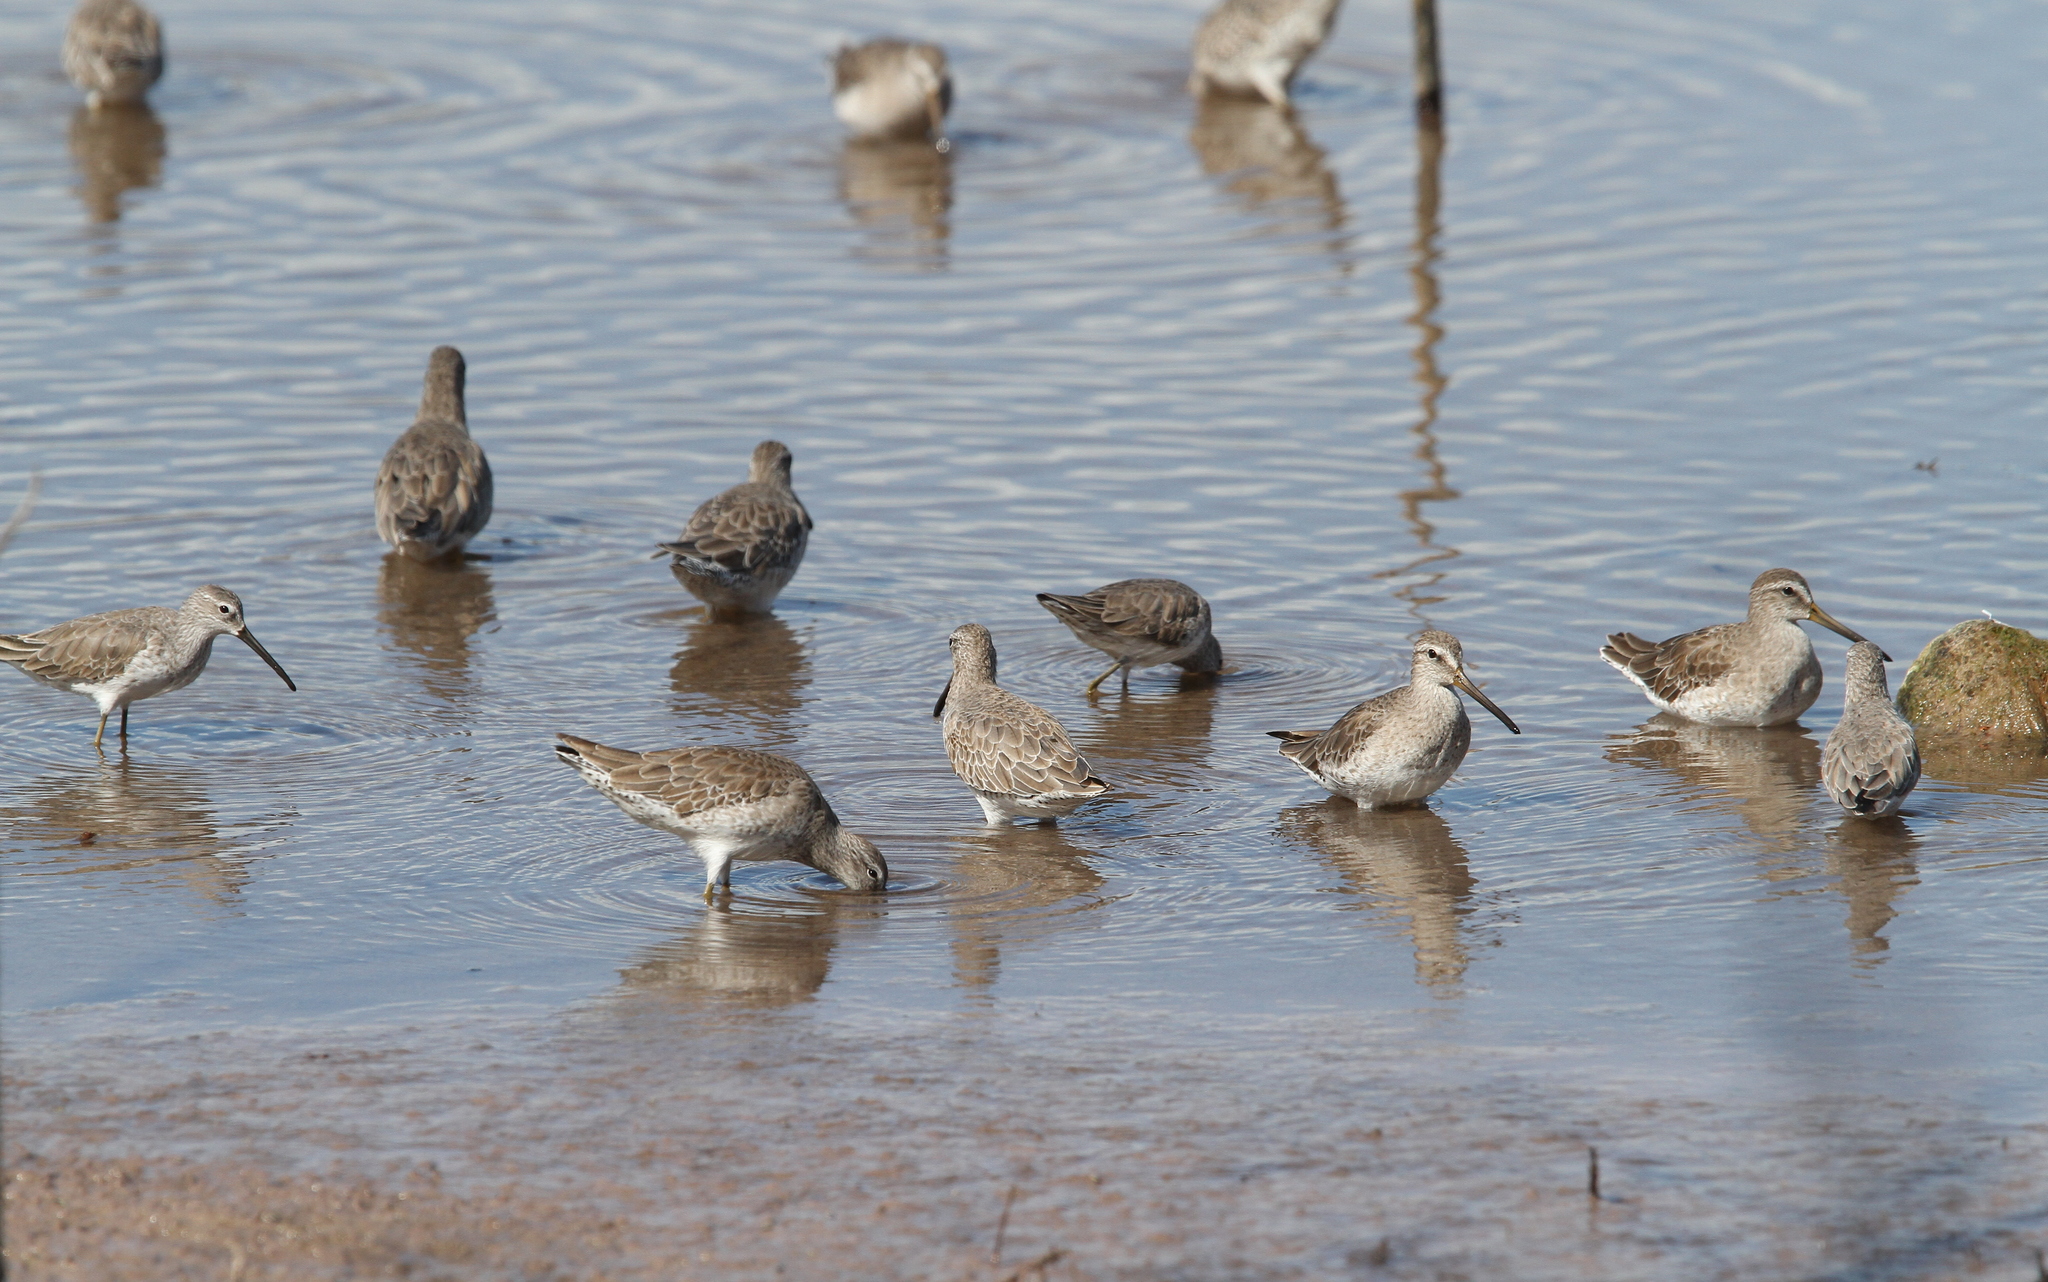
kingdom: Animalia
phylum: Chordata
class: Aves
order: Charadriiformes
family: Scolopacidae
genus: Limnodromus
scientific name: Limnodromus griseus
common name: Short-billed dowitcher
